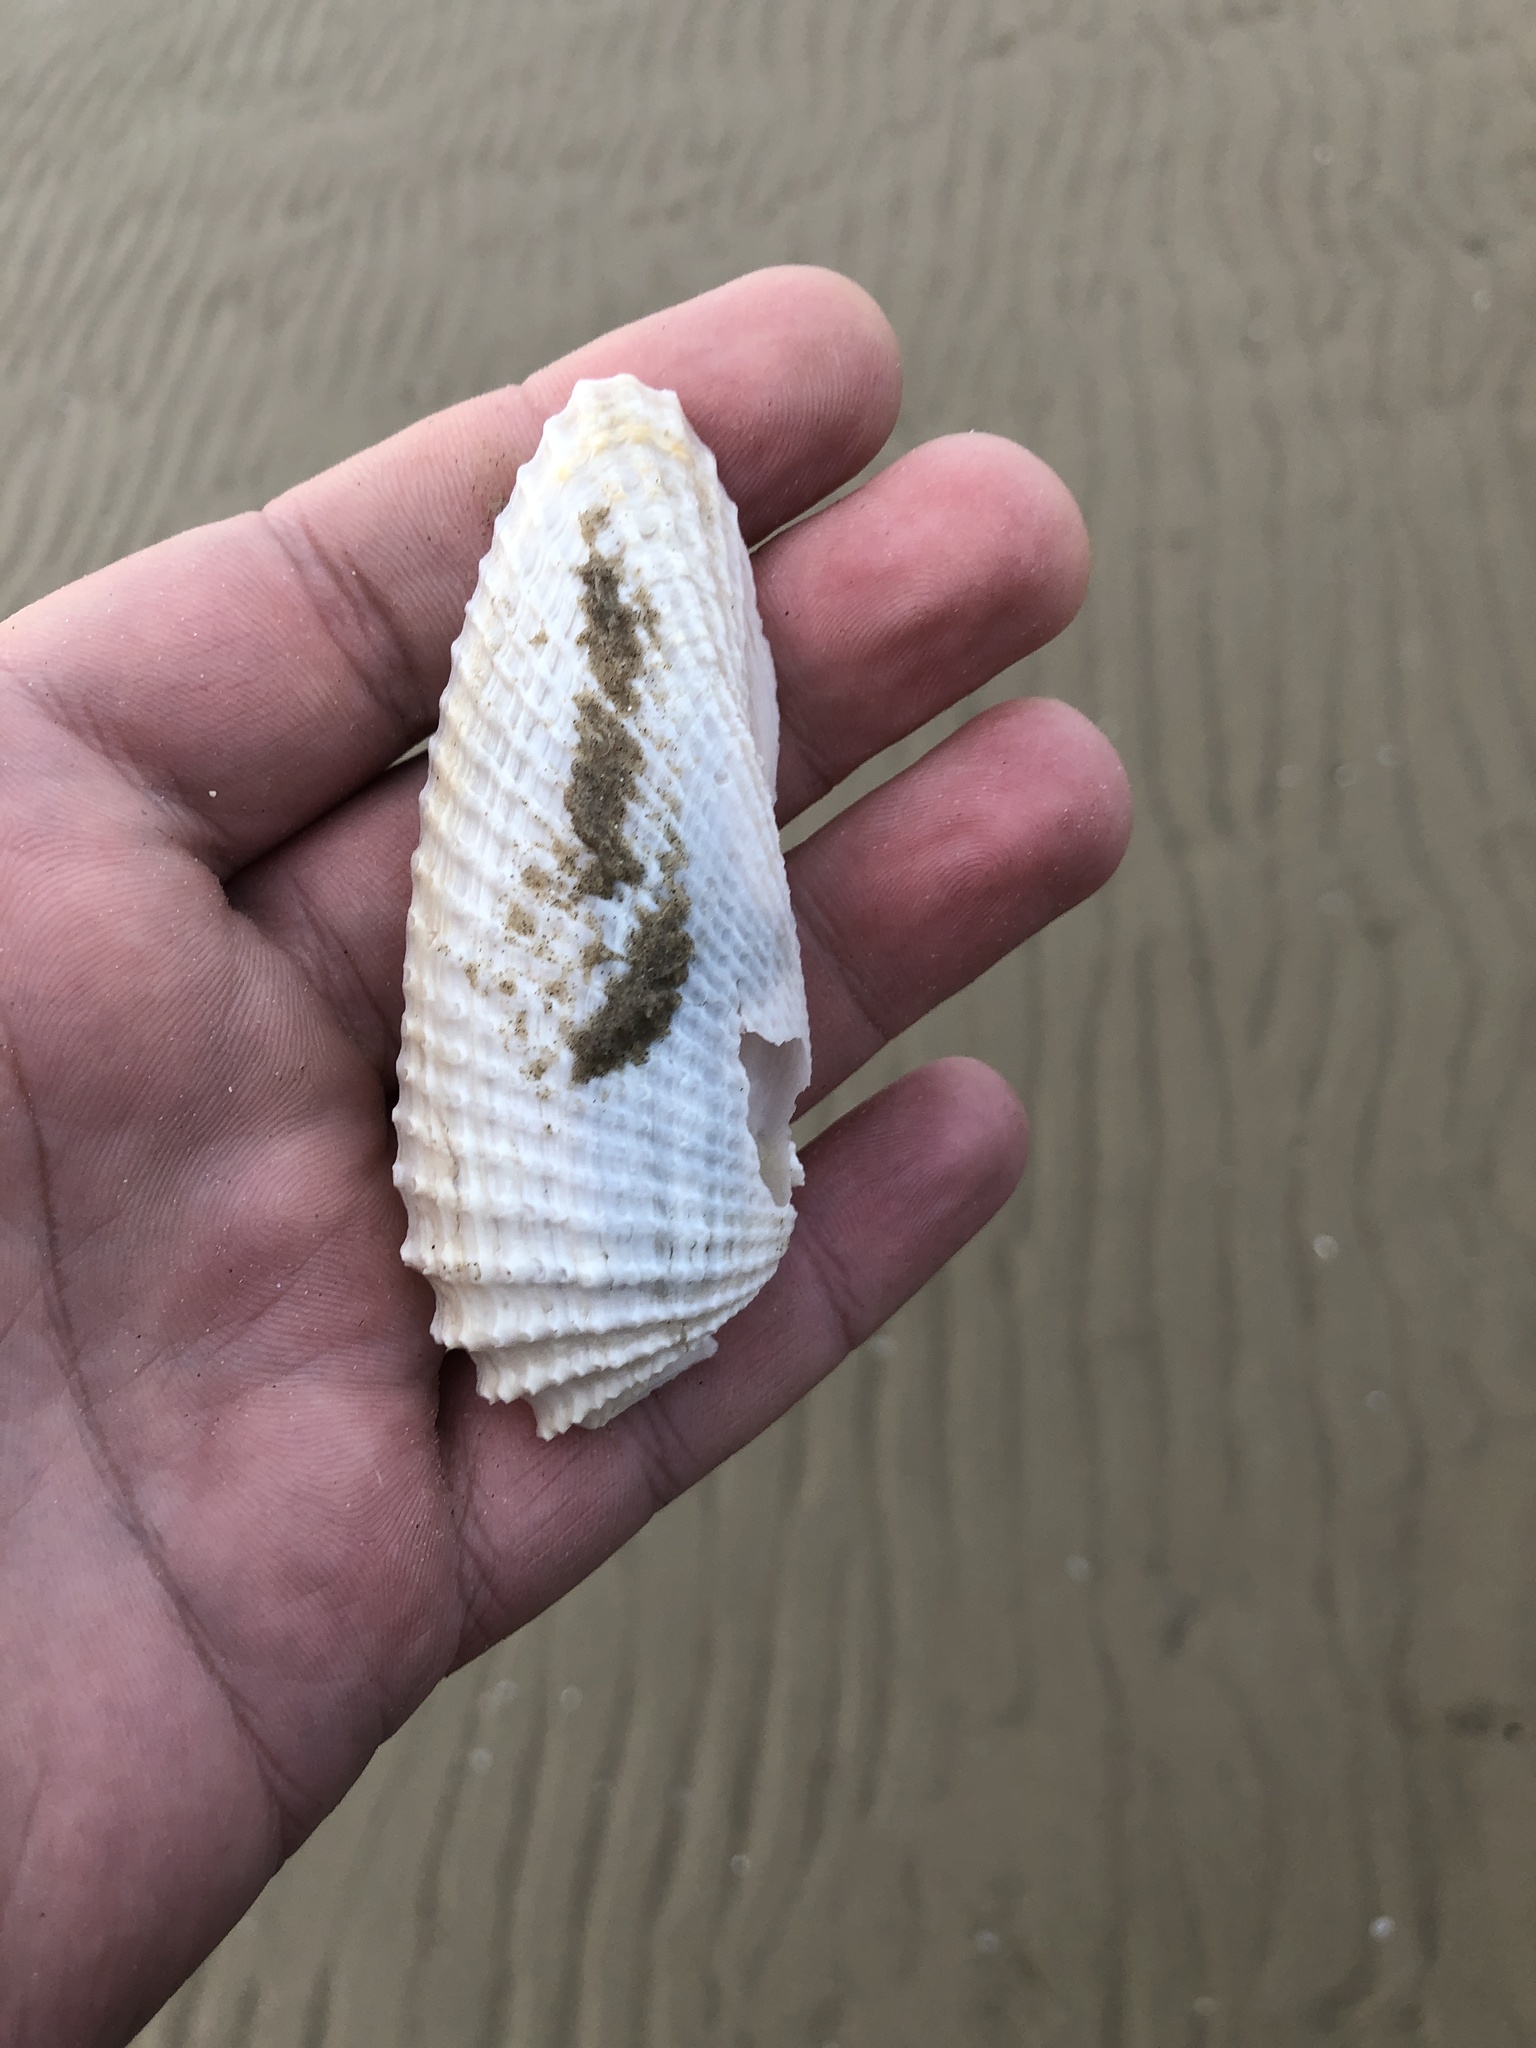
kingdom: Animalia
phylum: Mollusca
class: Bivalvia
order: Myida
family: Pholadidae
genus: Cyrtopleura
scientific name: Cyrtopleura costata
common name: Angel wing
